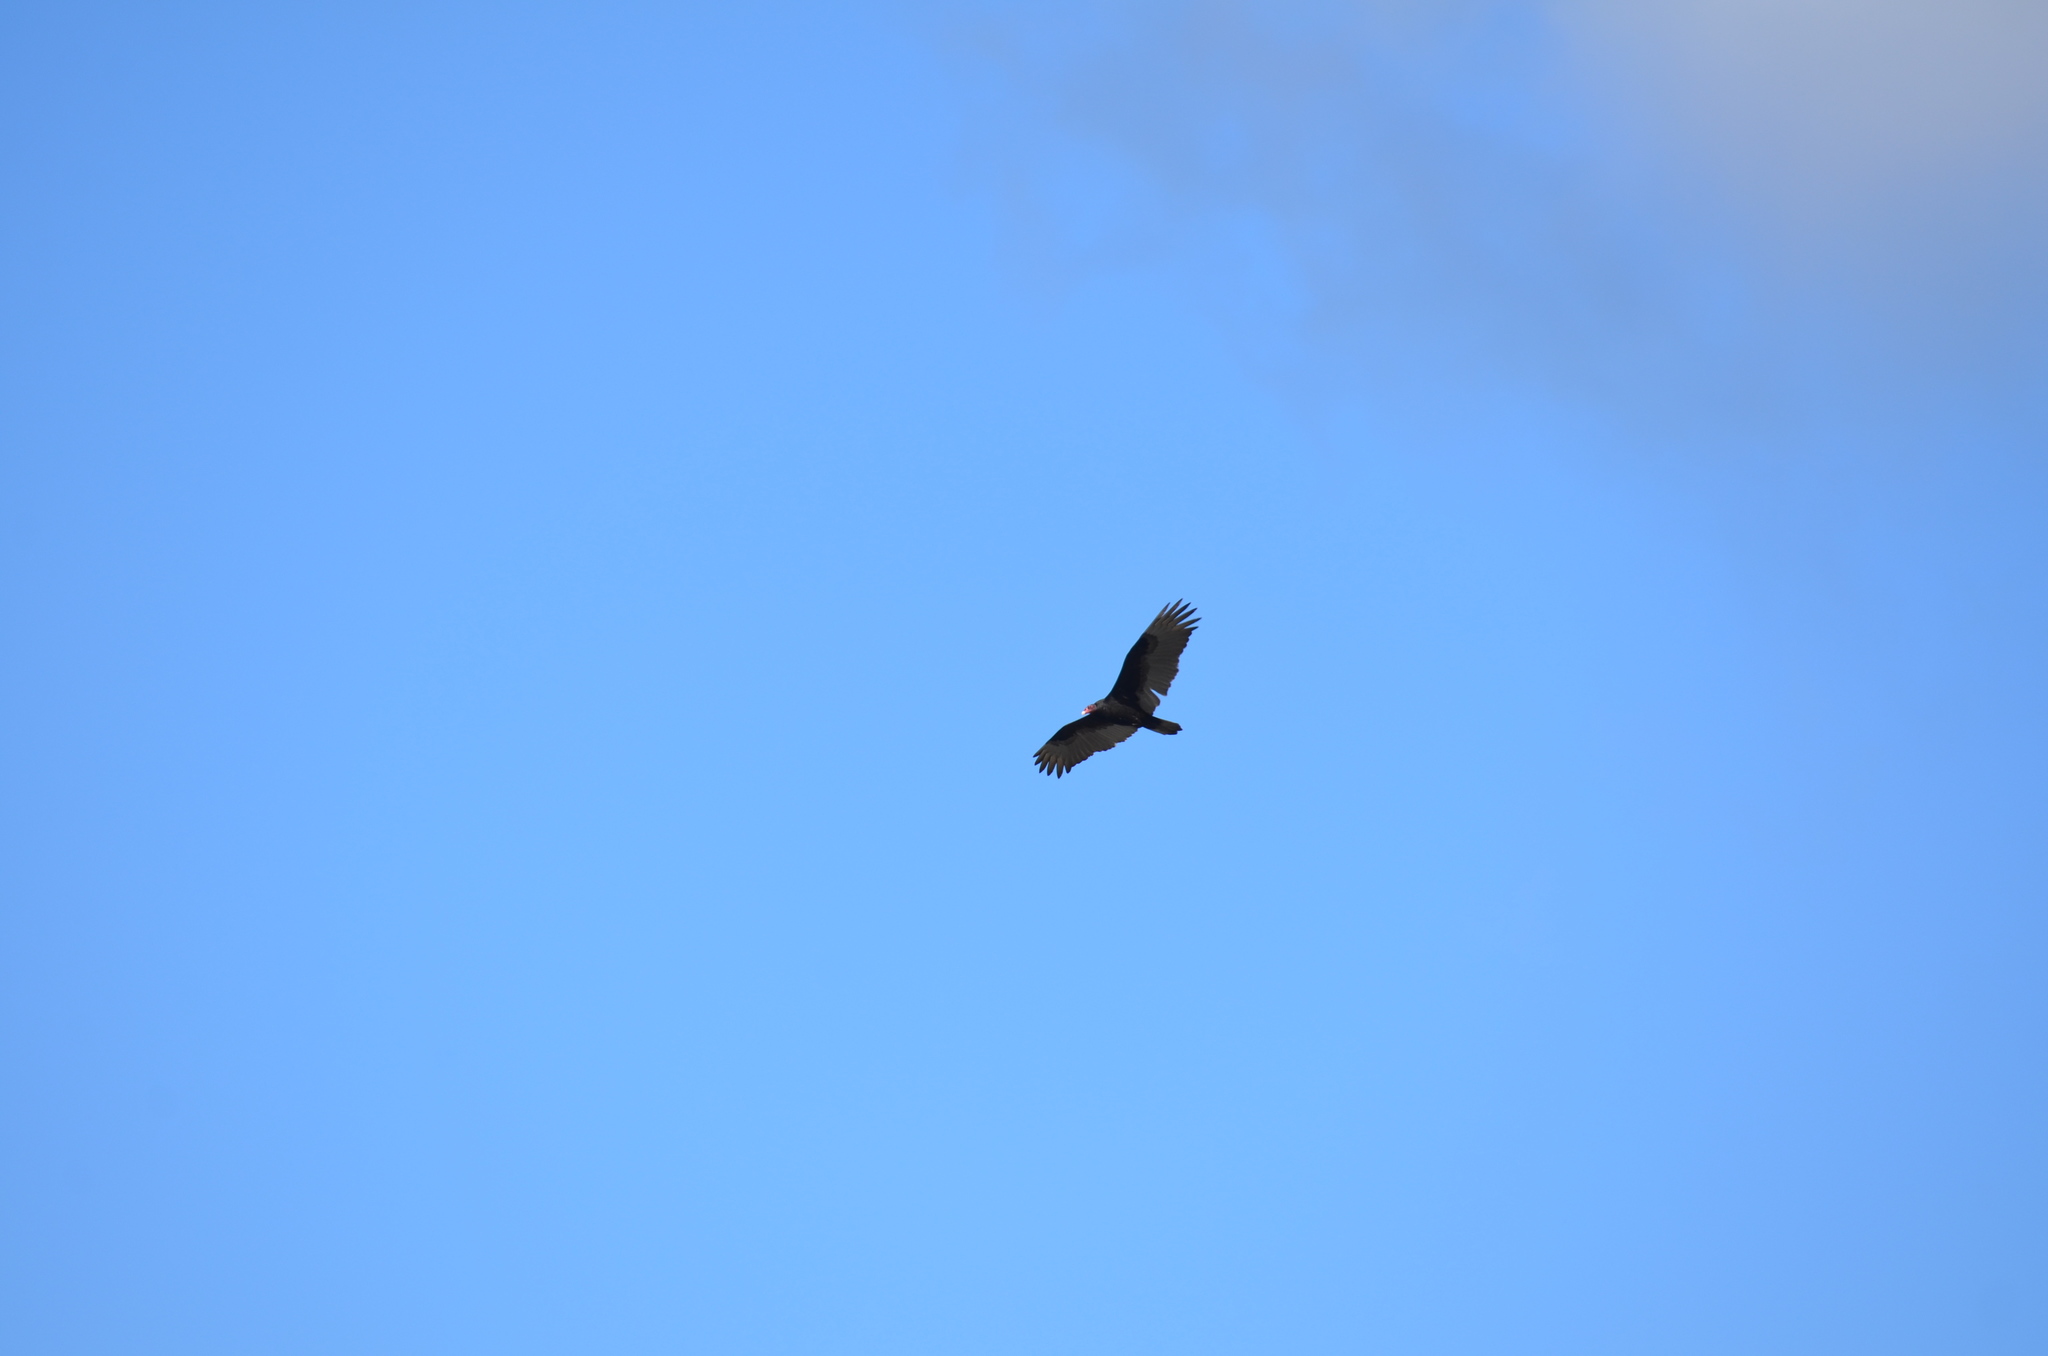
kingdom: Animalia
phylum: Chordata
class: Aves
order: Accipitriformes
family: Cathartidae
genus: Cathartes
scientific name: Cathartes aura
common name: Turkey vulture
